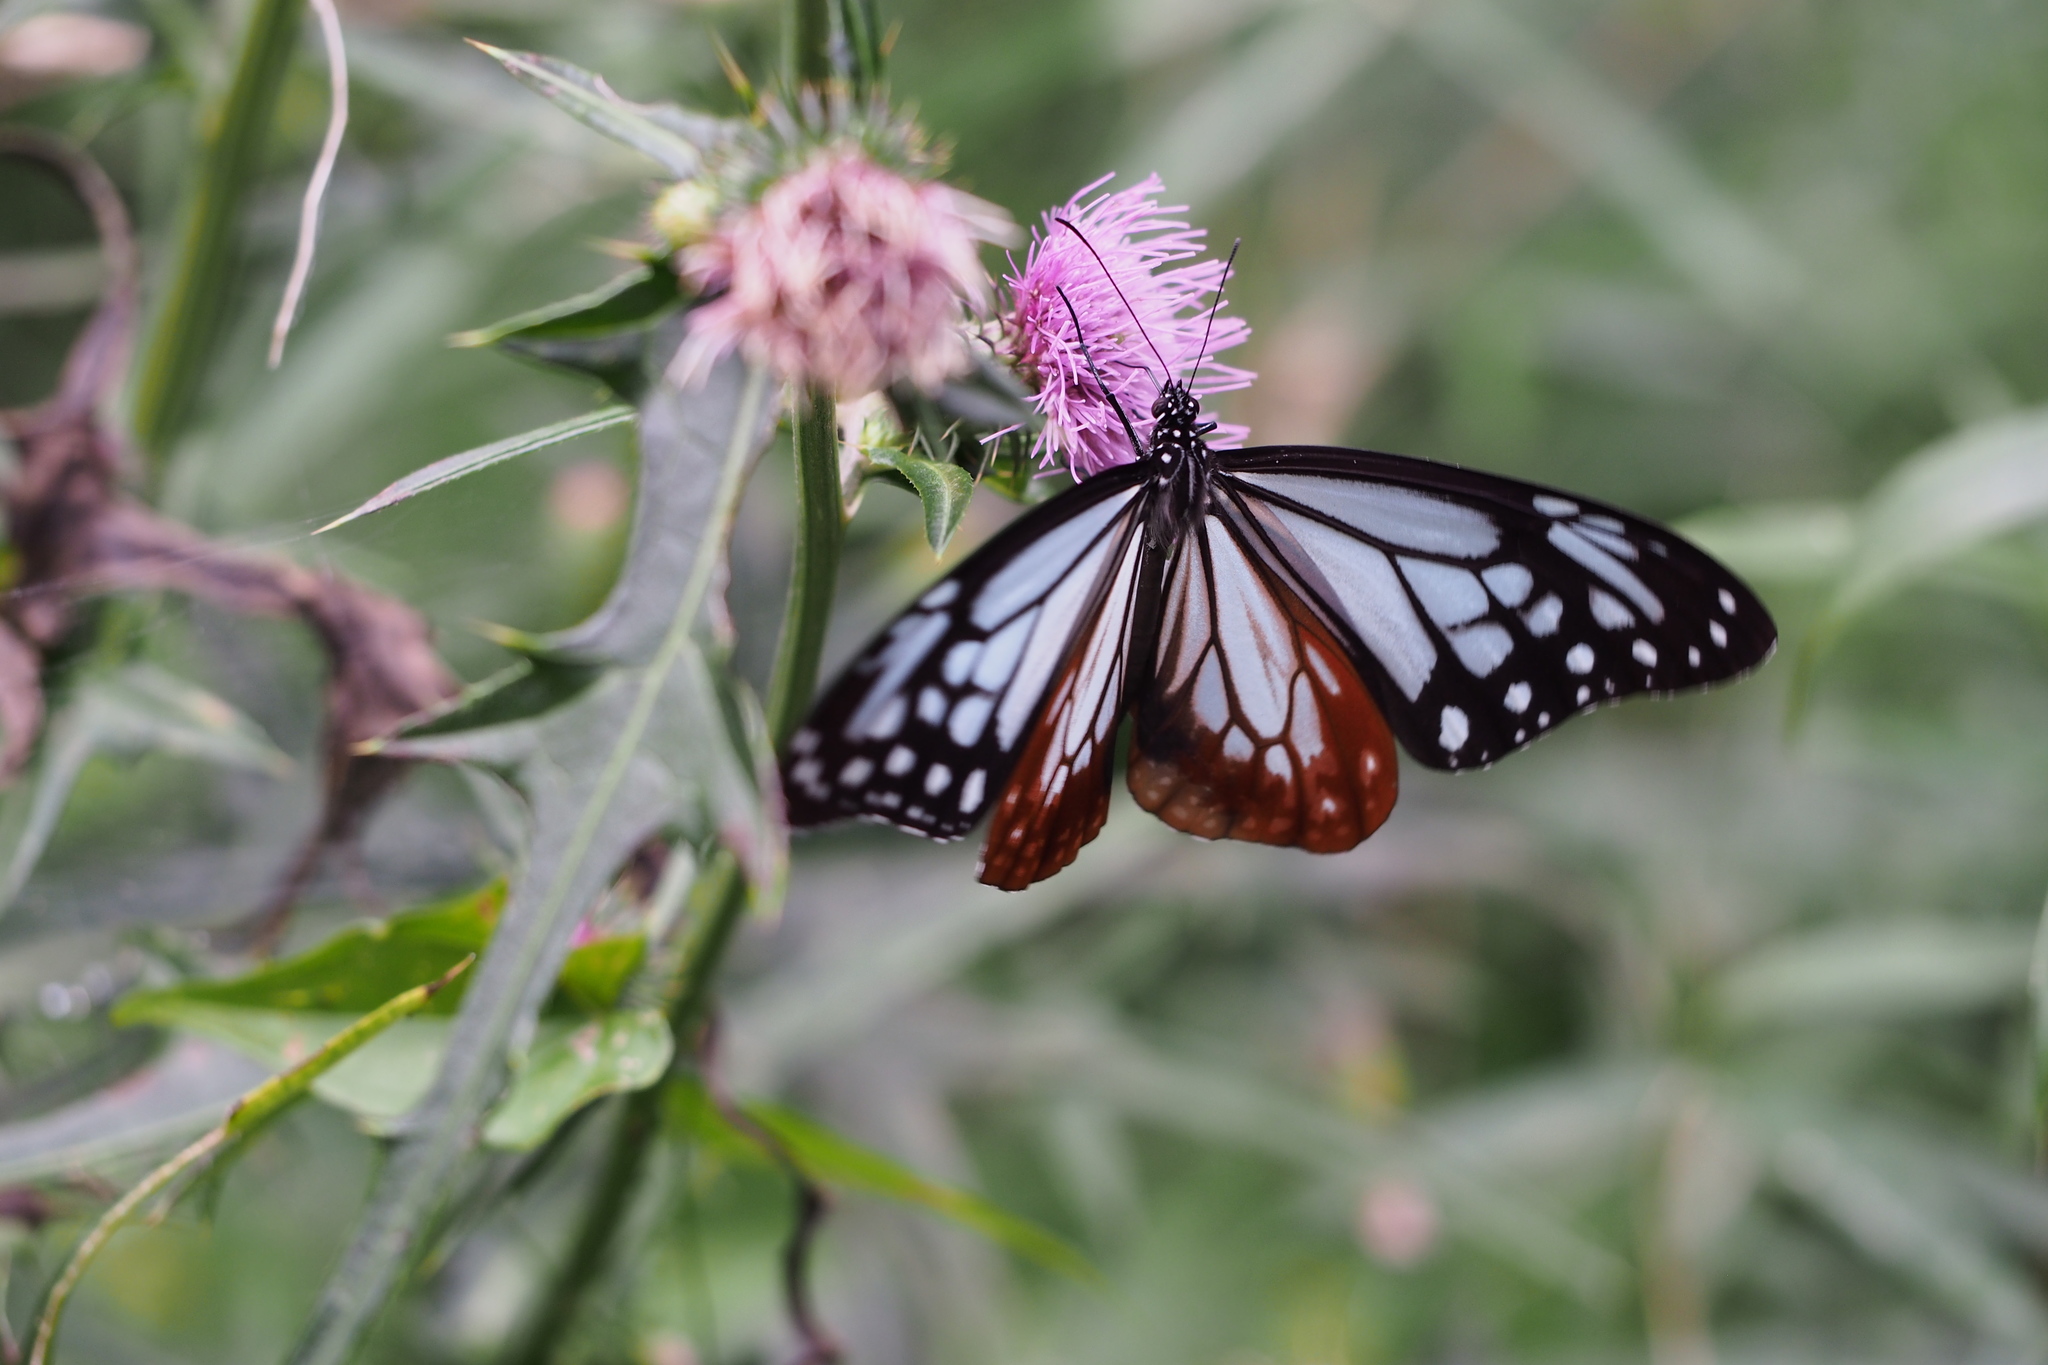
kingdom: Animalia
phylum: Arthropoda
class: Insecta
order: Lepidoptera
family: Nymphalidae
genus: Parantica
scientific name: Parantica sita
